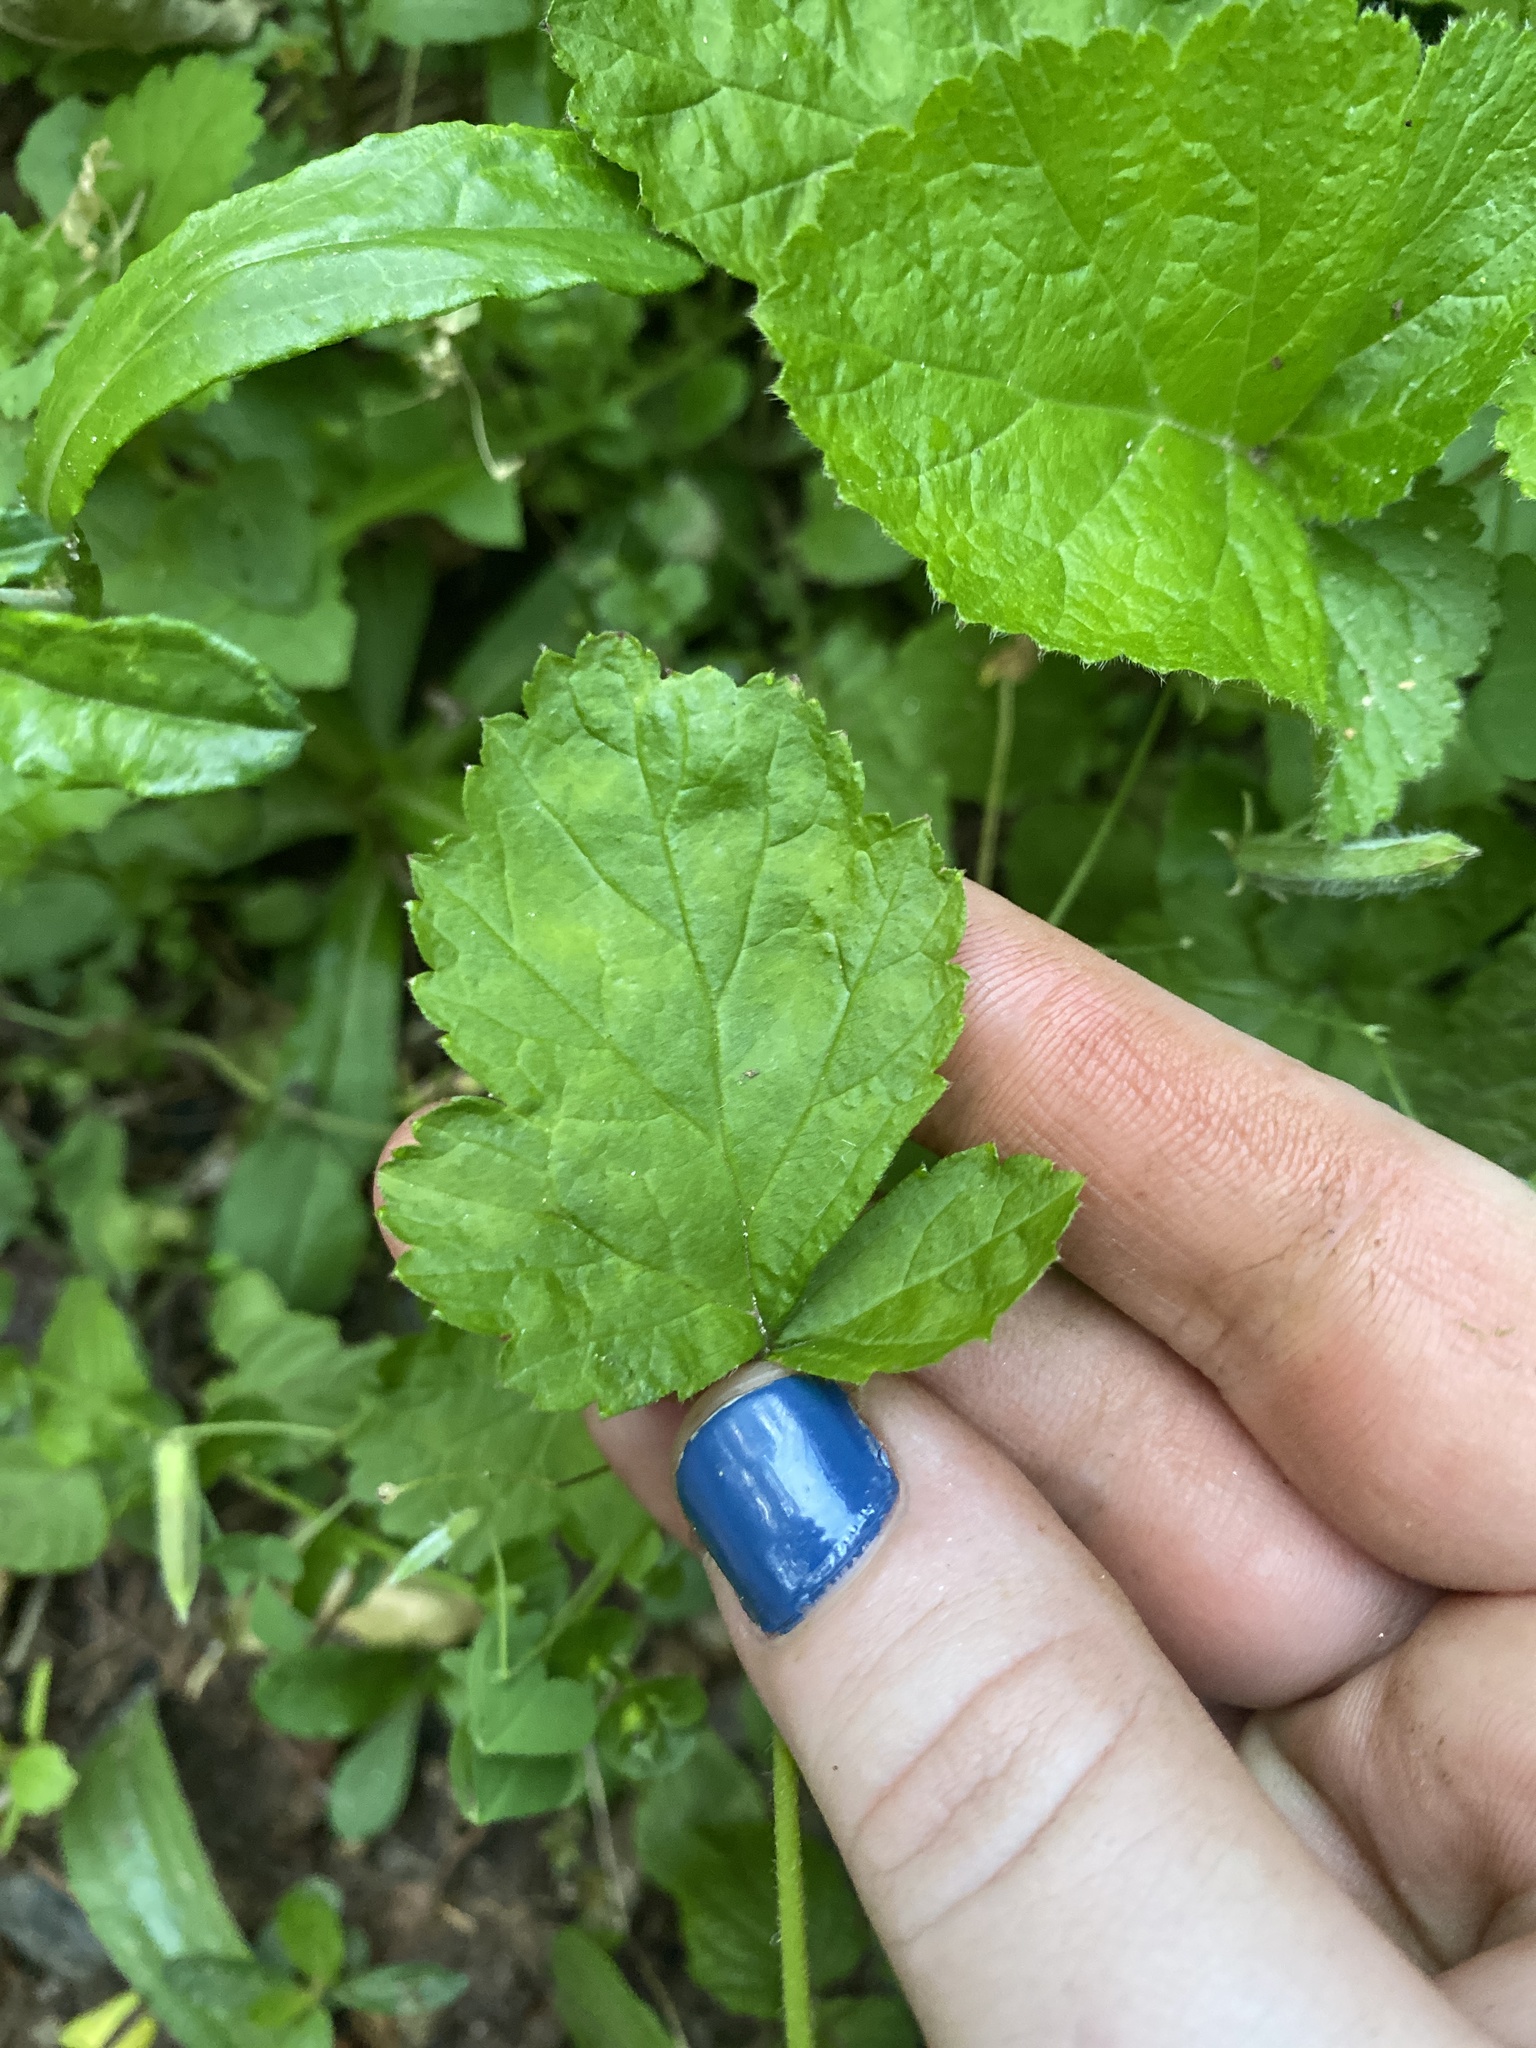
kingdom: Plantae
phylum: Tracheophyta
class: Magnoliopsida
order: Rosales
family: Rosaceae
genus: Geum
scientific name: Geum canadense
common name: White avens
